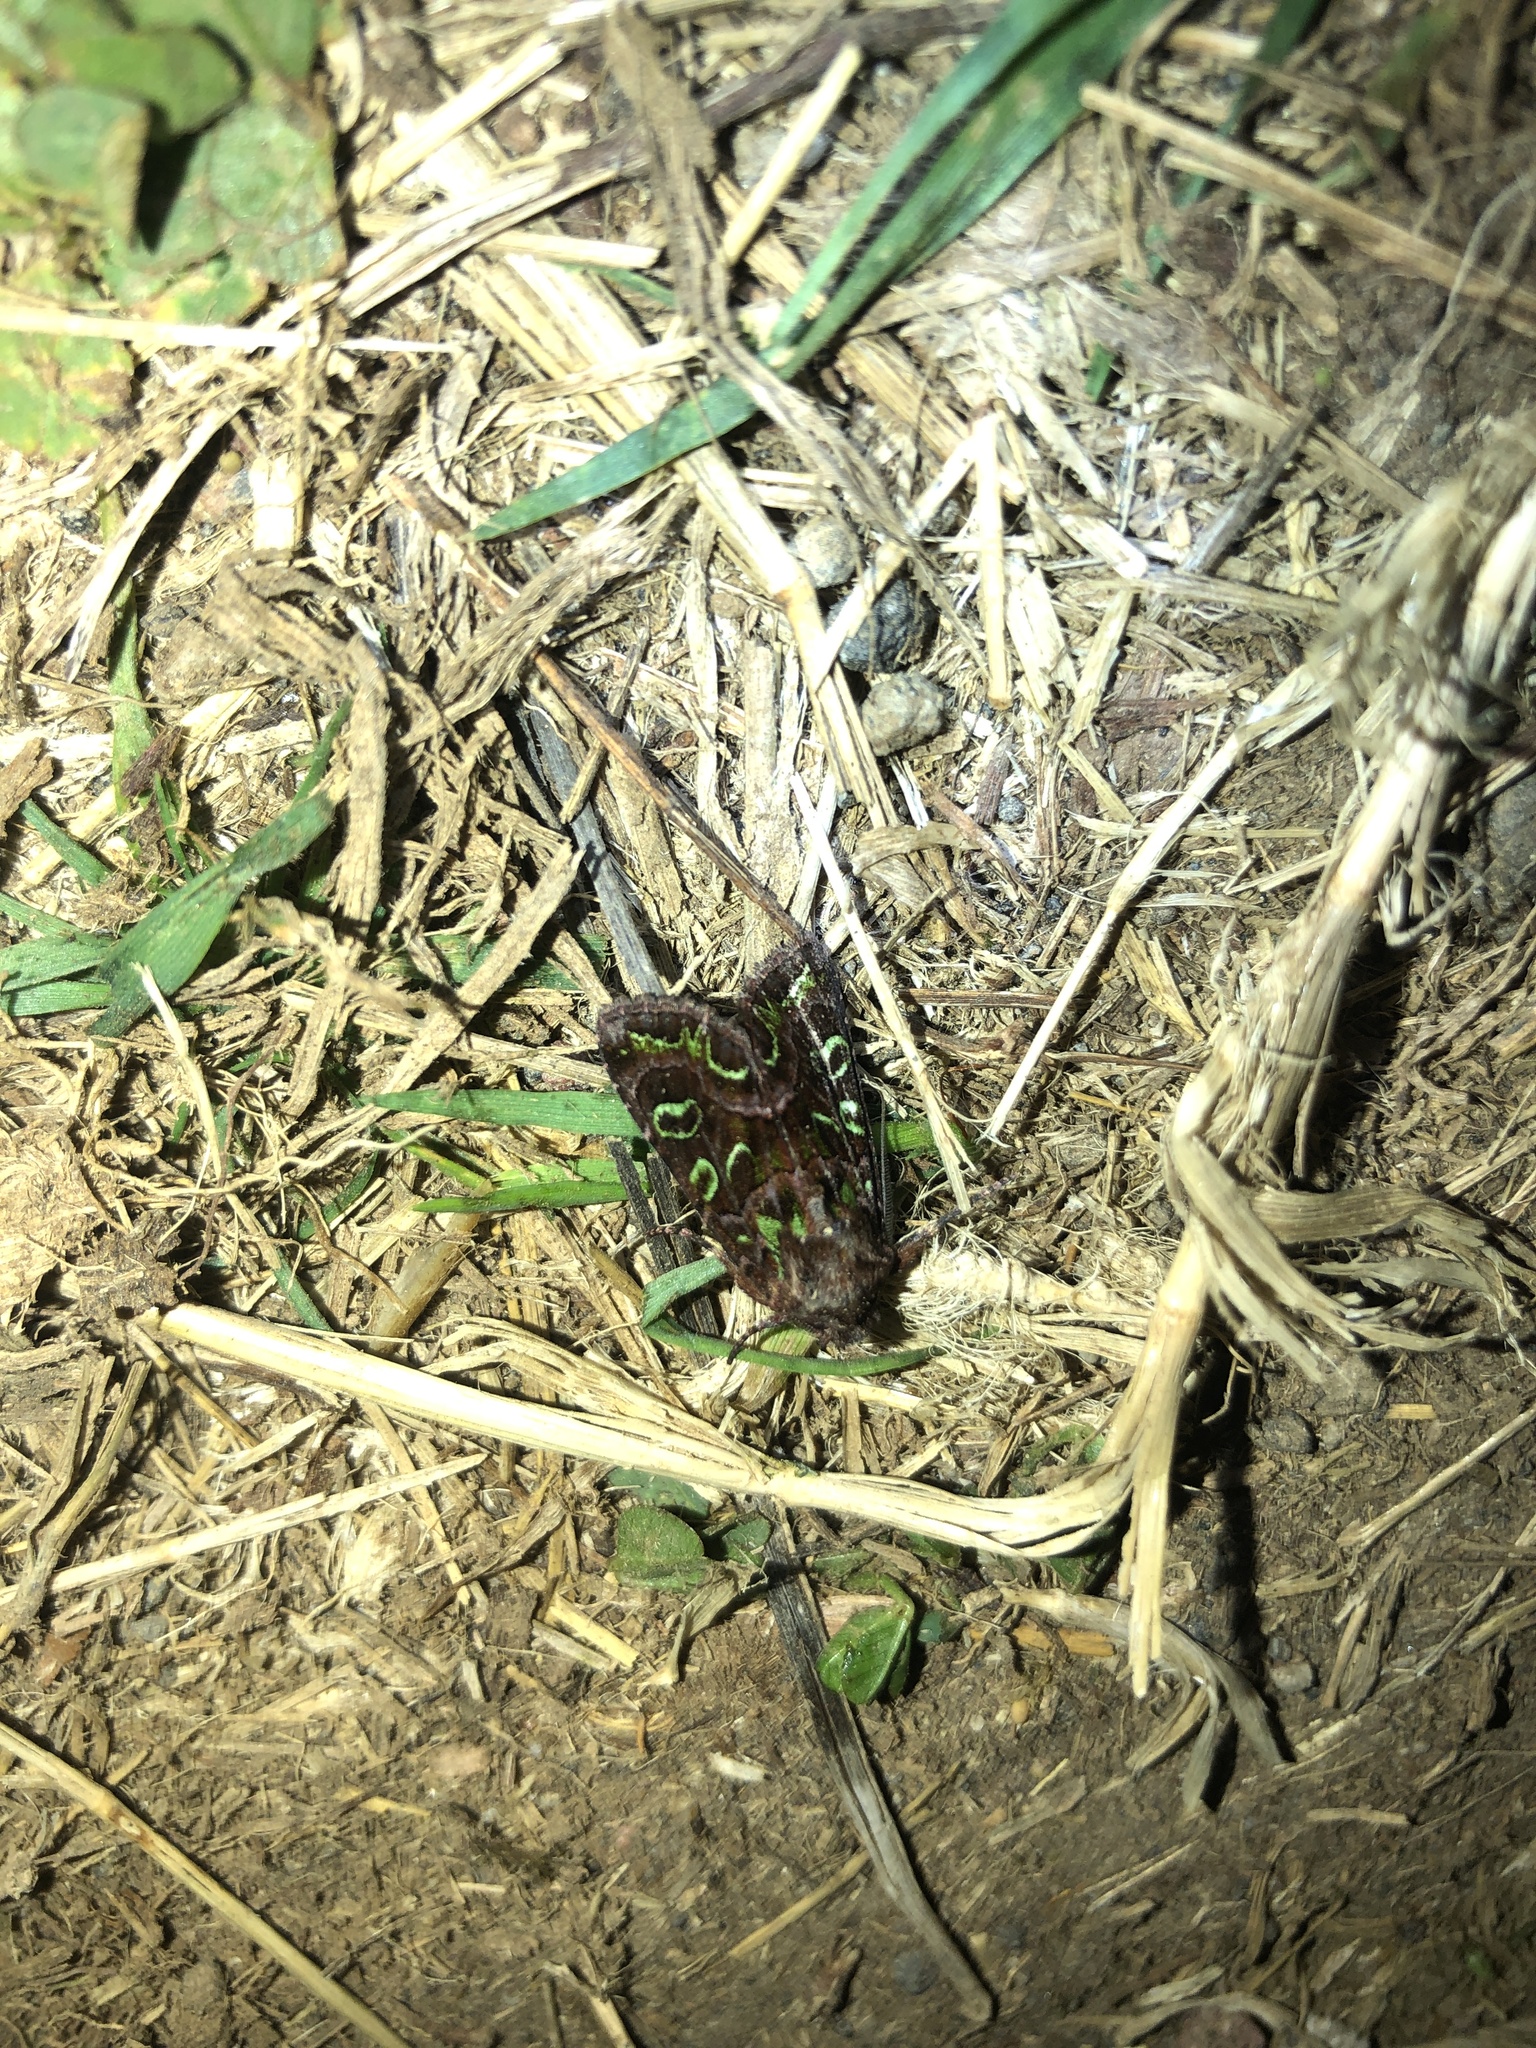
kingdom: Animalia
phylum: Arthropoda
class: Insecta
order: Lepidoptera
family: Noctuidae
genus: Ichneutica
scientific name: Ichneutica chlorodonta
